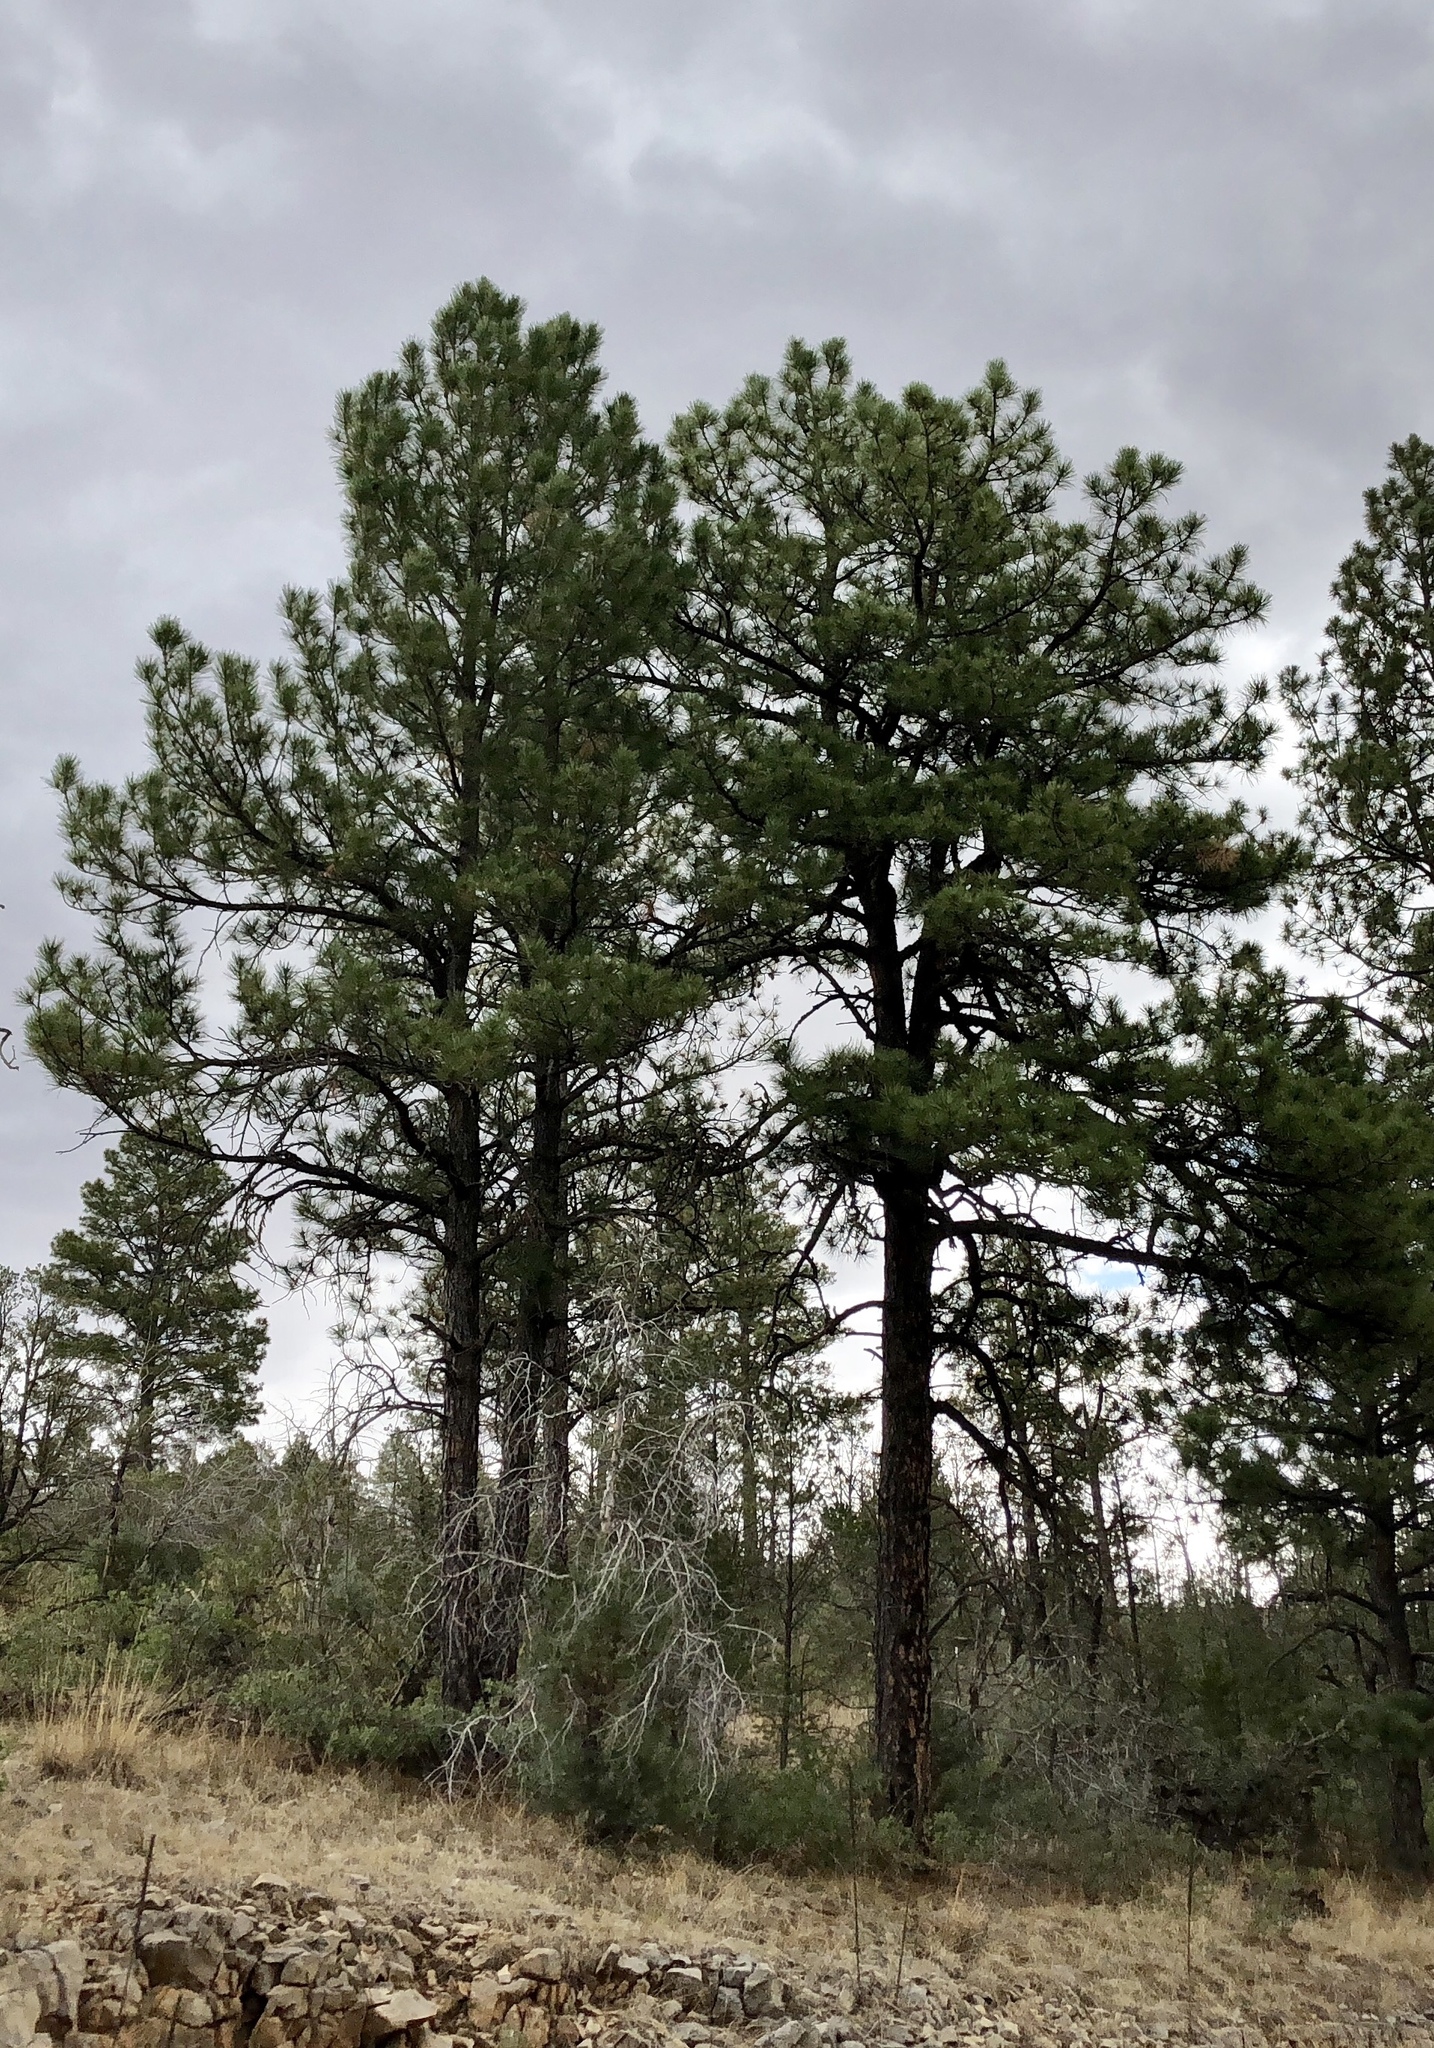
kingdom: Plantae
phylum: Tracheophyta
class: Pinopsida
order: Pinales
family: Pinaceae
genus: Pinus
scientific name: Pinus ponderosa
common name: Western yellow-pine
